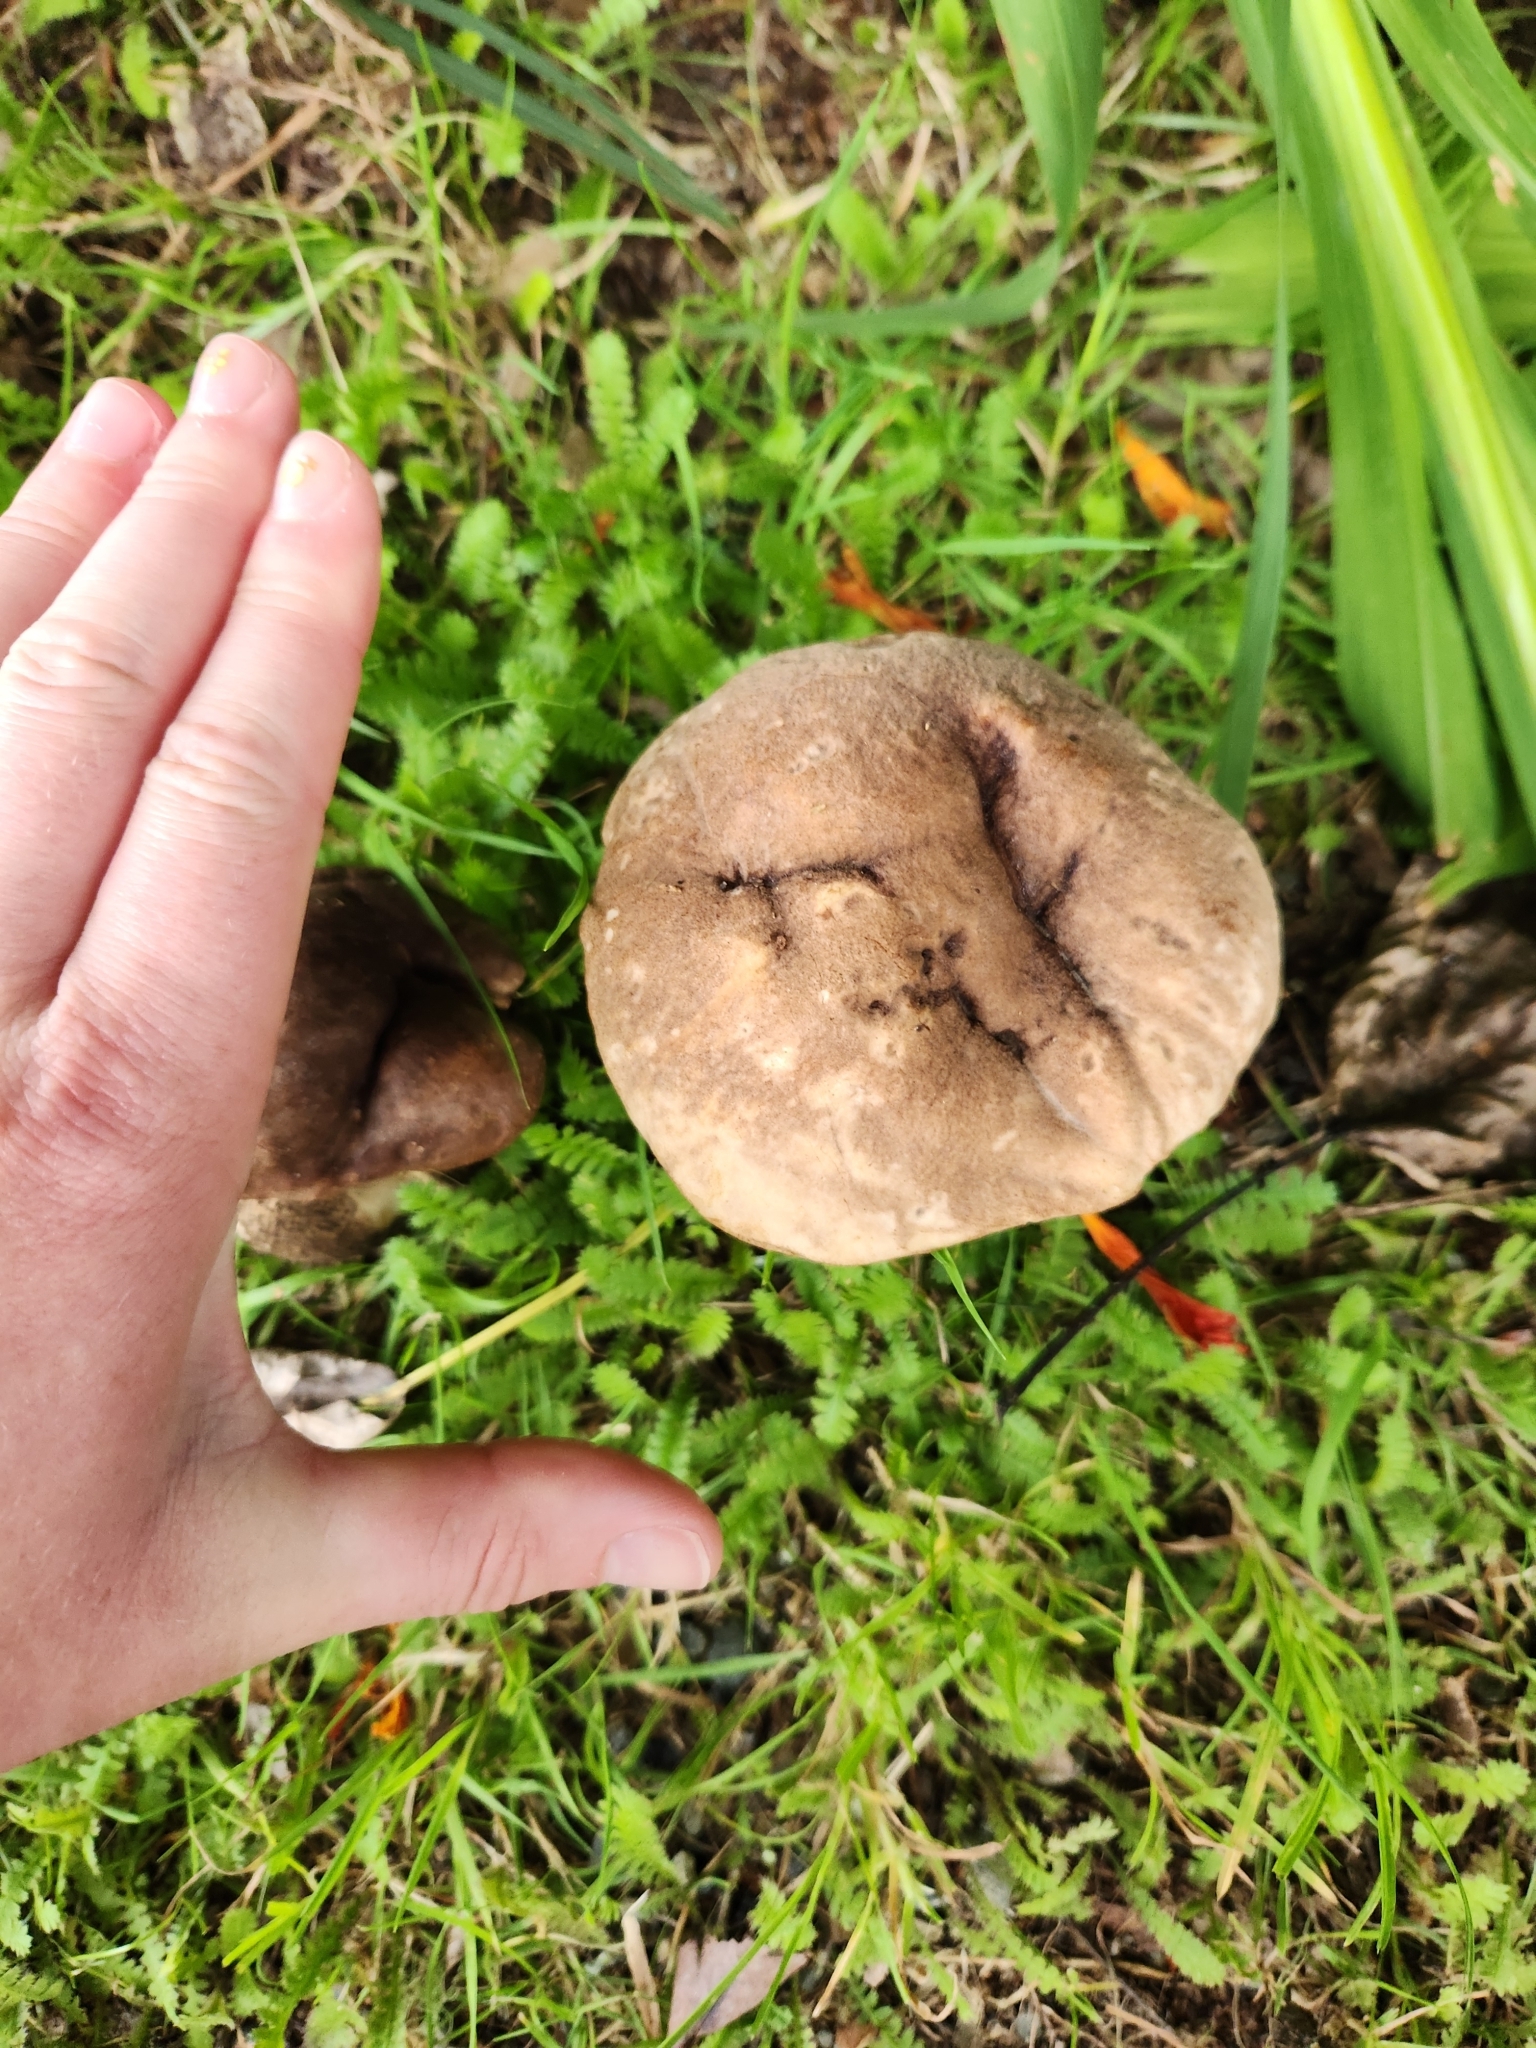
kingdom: Fungi
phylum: Basidiomycota
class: Agaricomycetes
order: Boletales
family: Boletaceae
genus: Leccinum
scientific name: Leccinum scabrum
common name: Blushing bolete
